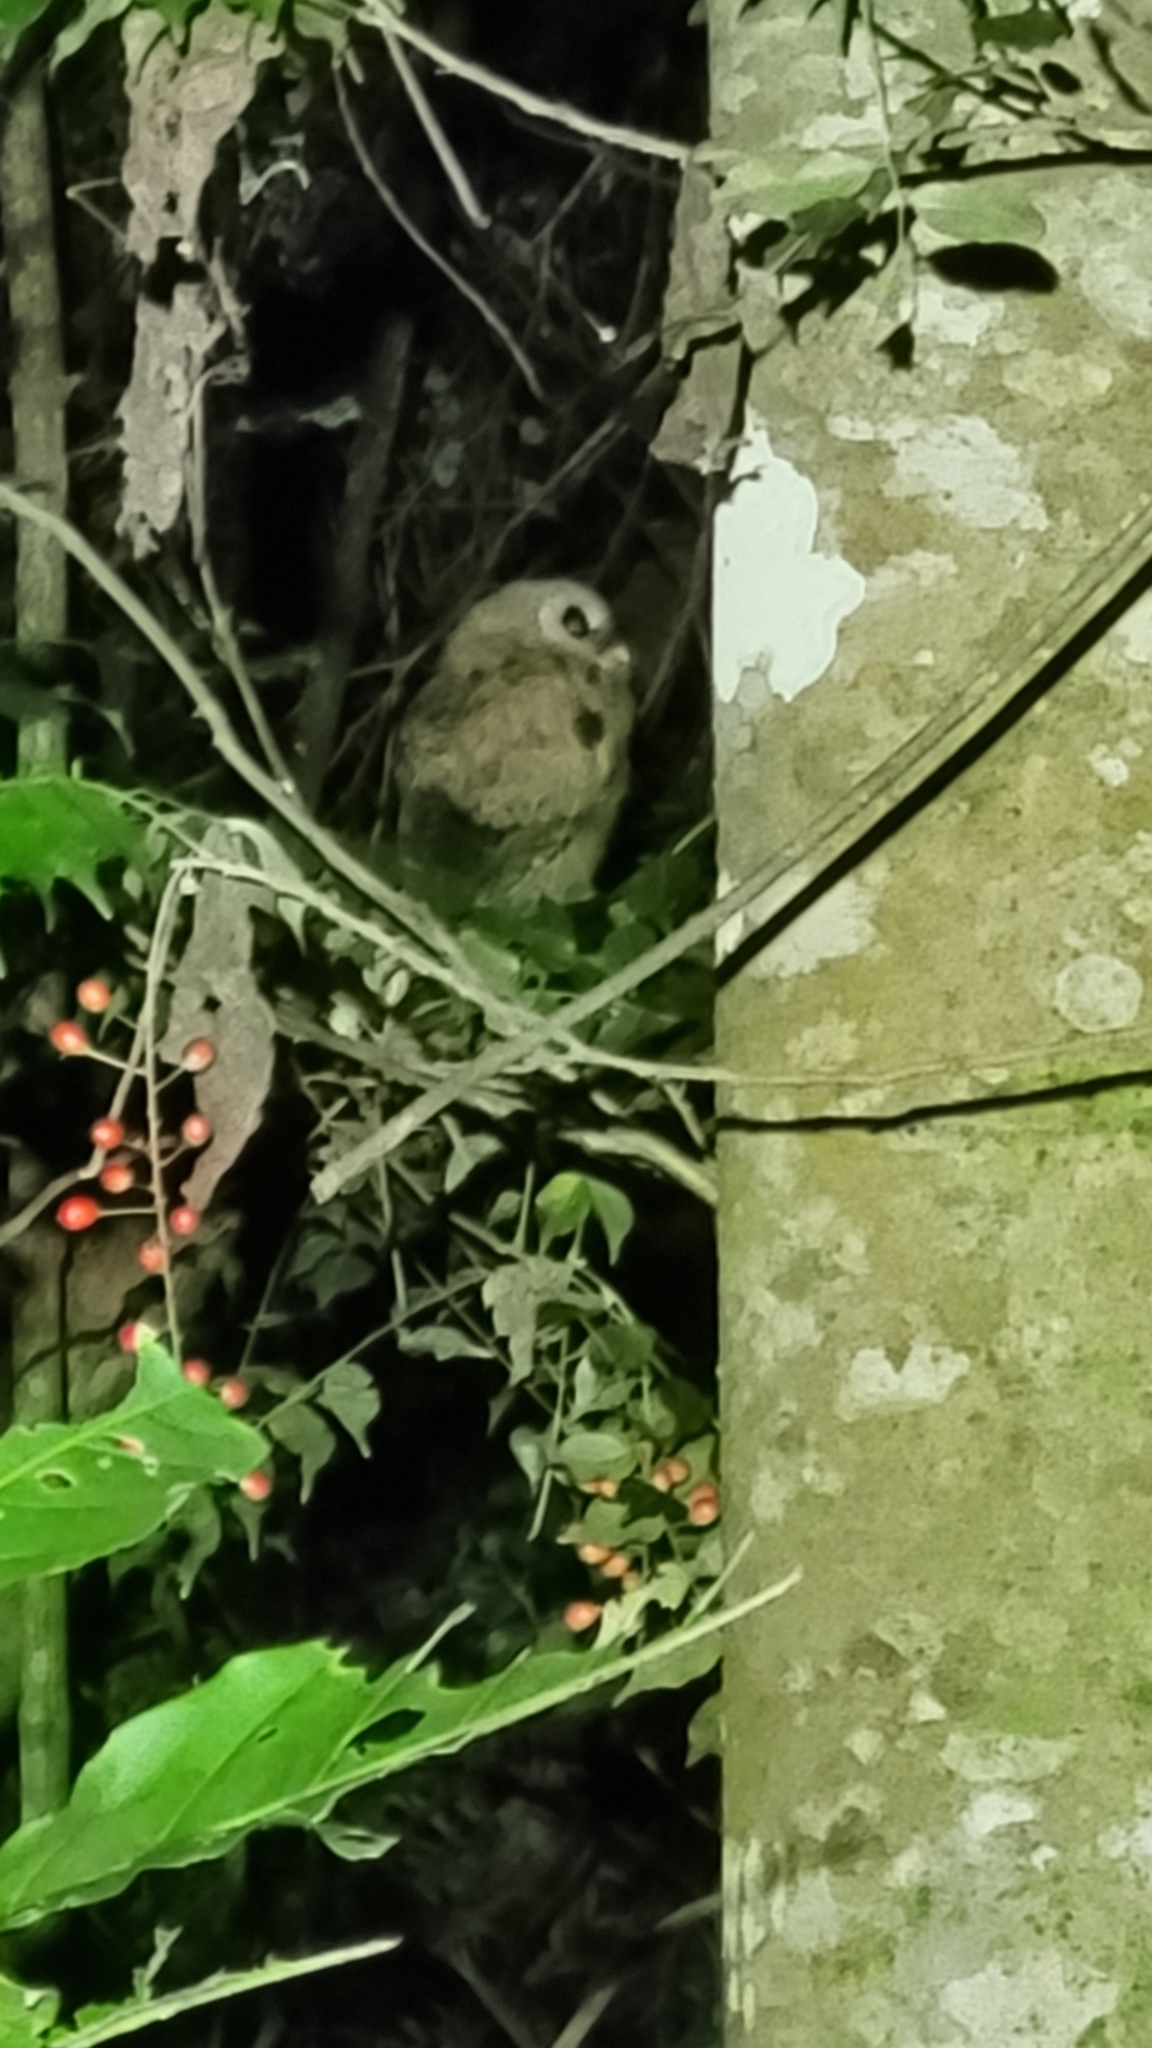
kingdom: Animalia
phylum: Chordata
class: Aves
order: Strigiformes
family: Strigidae
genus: Strix
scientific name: Strix virgata
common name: Mottled owl
